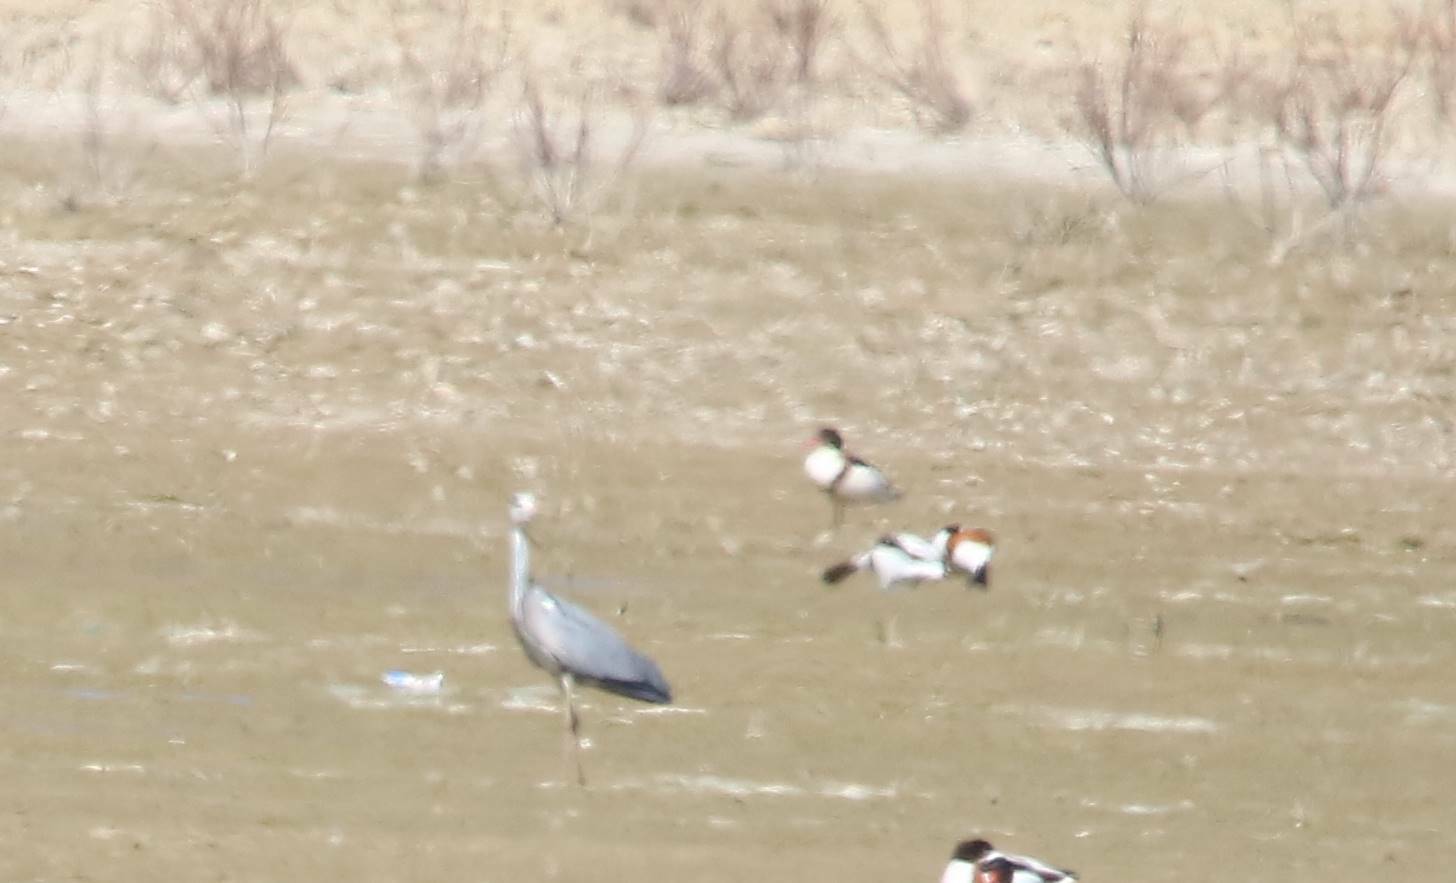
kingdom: Animalia
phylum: Chordata
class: Aves
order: Pelecaniformes
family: Ardeidae
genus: Ardea
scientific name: Ardea cinerea
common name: Grey heron
